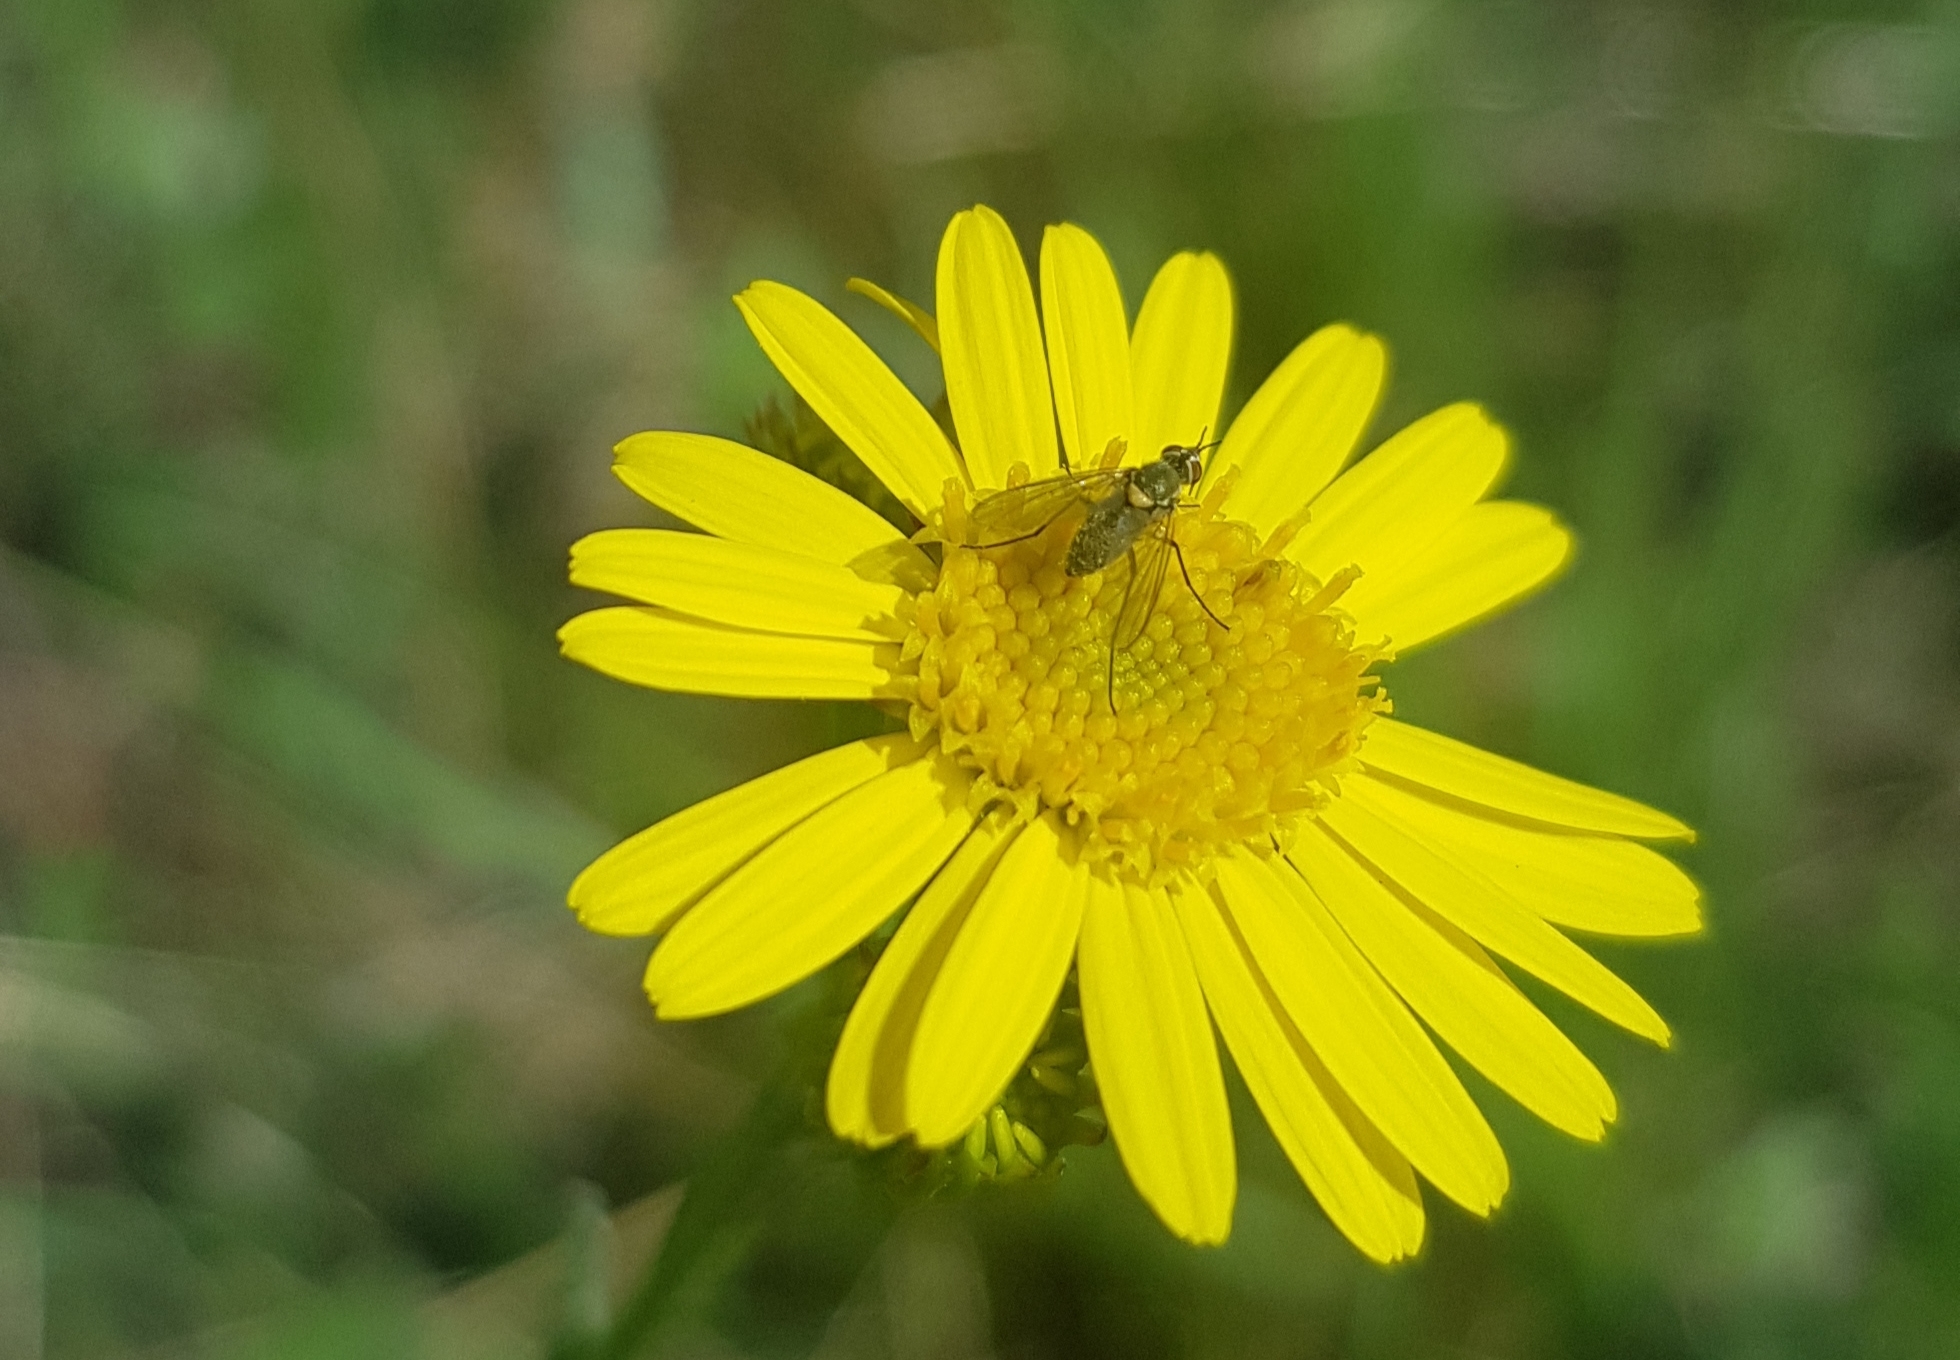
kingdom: Plantae
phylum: Tracheophyta
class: Magnoliopsida
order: Asterales
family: Asteraceae
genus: Pentanema
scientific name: Pentanema britannicum
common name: British elecampane
